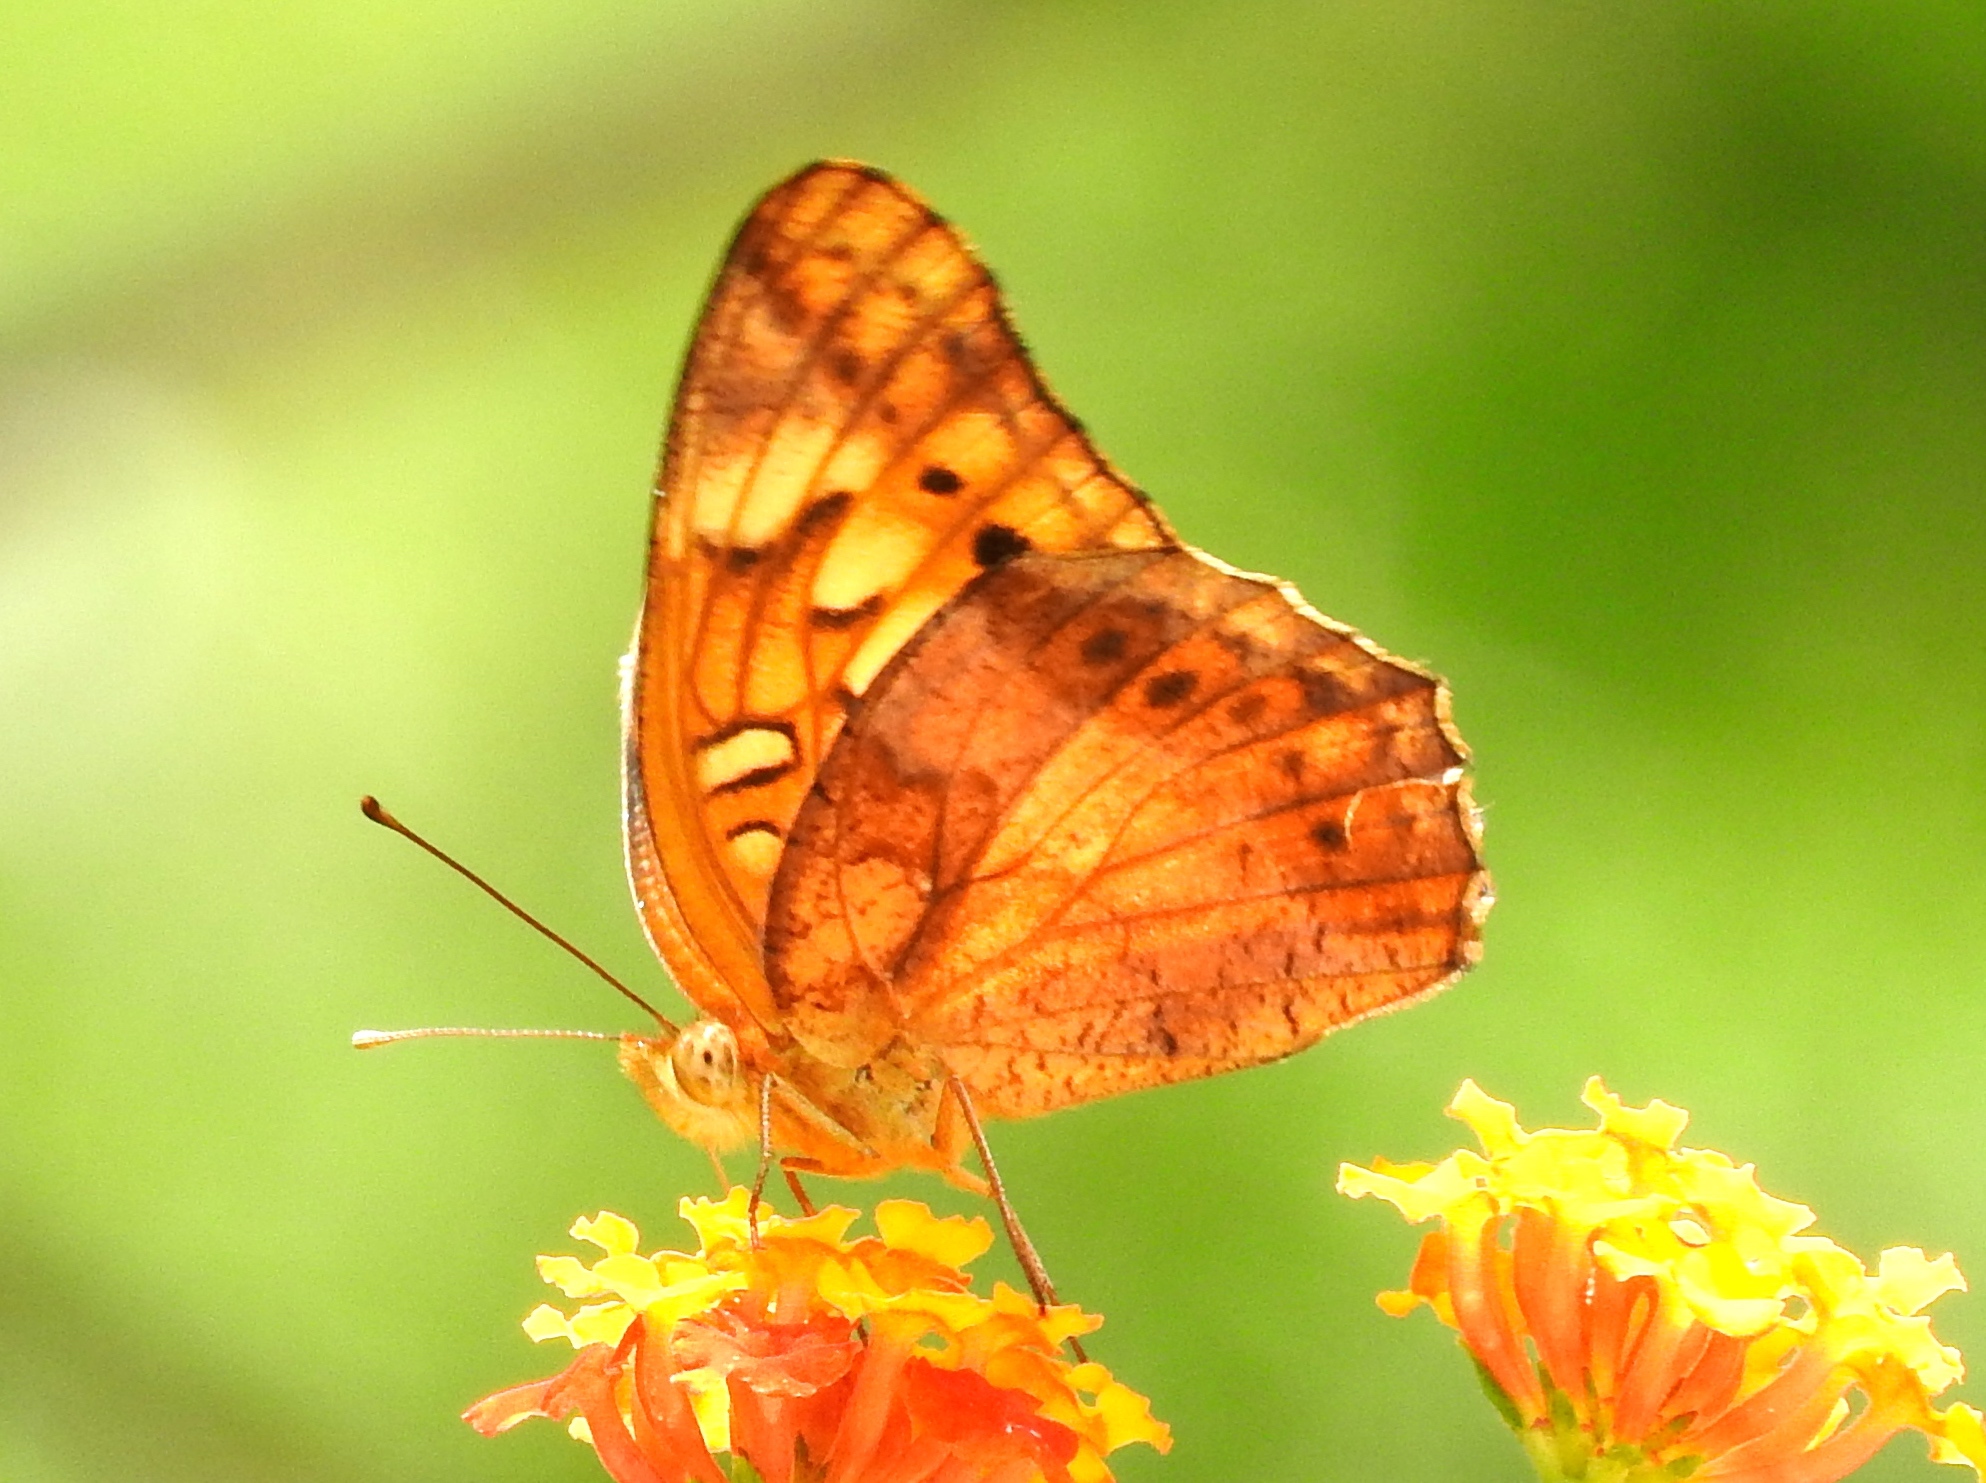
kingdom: Animalia
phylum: Arthropoda
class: Insecta
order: Lepidoptera
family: Nymphalidae
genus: Euptoieta
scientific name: Euptoieta hegesia
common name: Mexican fritillary
